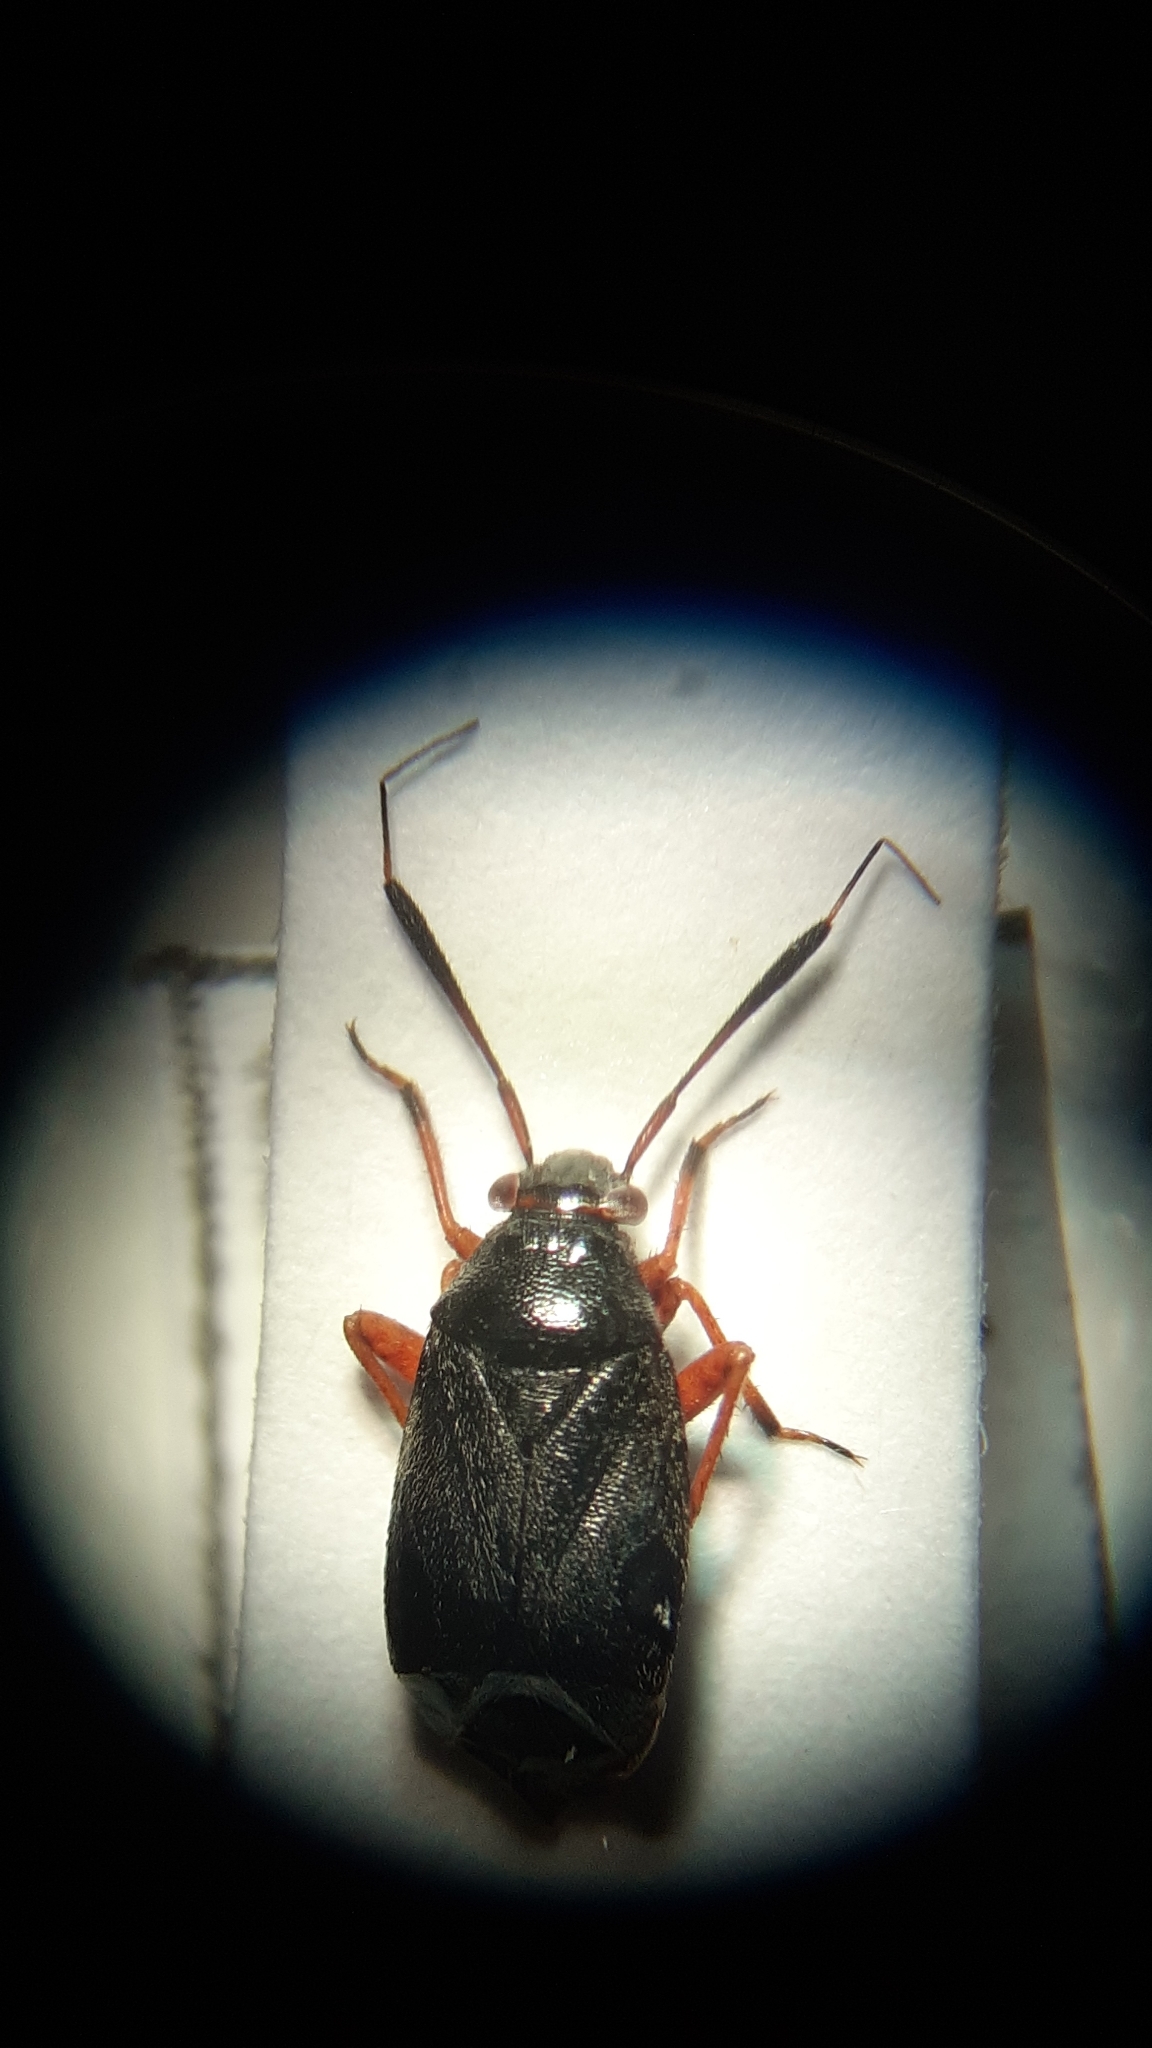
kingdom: Animalia
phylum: Arthropoda
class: Insecta
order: Hemiptera
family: Miridae
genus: Capsus
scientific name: Capsus ater
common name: Black plant bug
